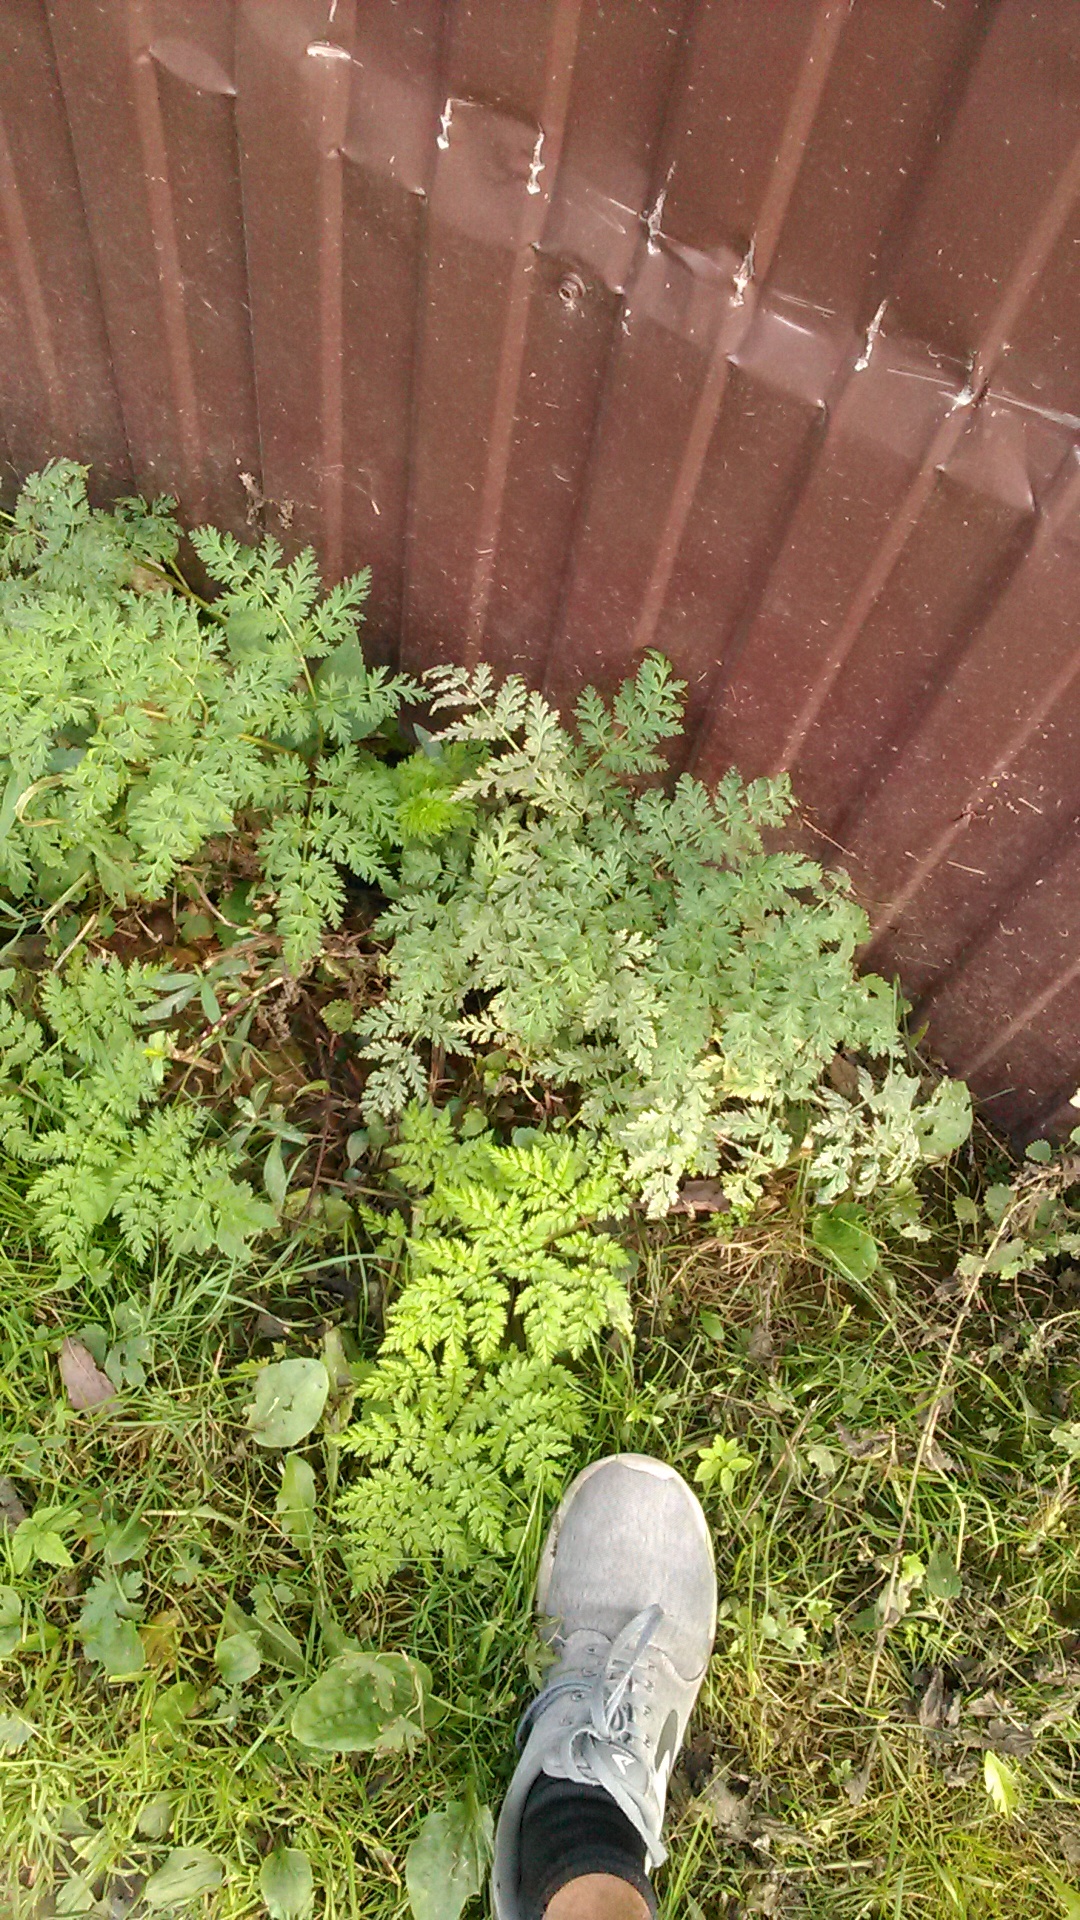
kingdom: Plantae
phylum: Tracheophyta
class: Magnoliopsida
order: Apiales
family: Apiaceae
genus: Anthriscus
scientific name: Anthriscus sylvestris
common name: Cow parsley
